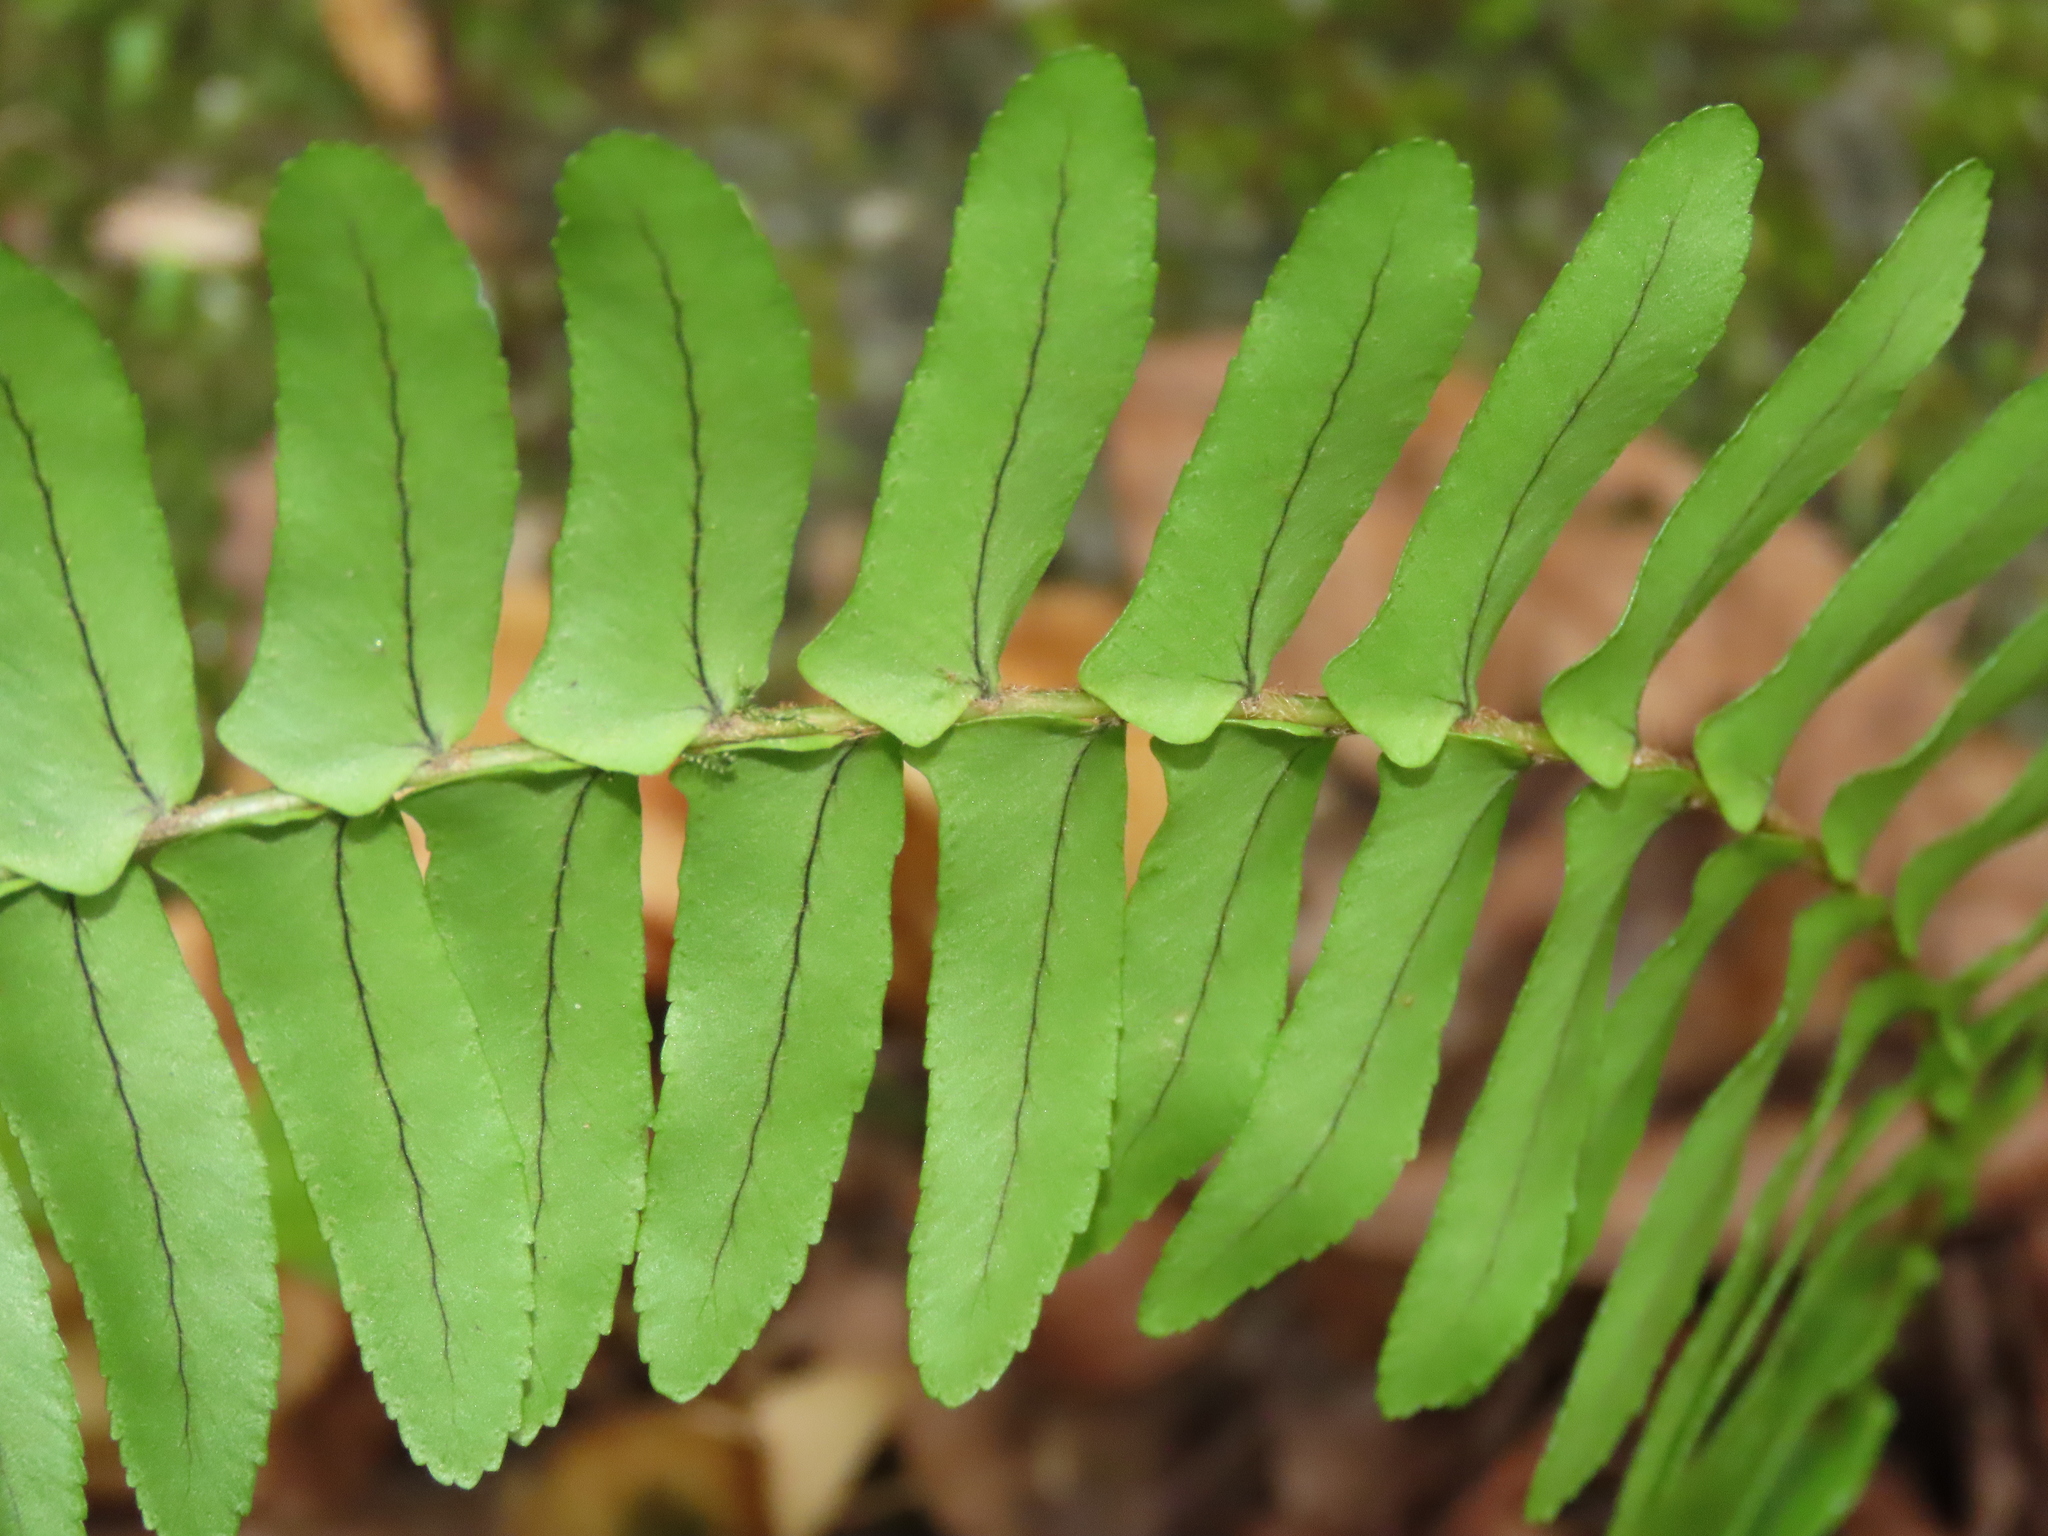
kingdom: Plantae
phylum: Tracheophyta
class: Polypodiopsida
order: Polypodiales
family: Nephrolepidaceae
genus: Nephrolepis
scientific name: Nephrolepis cordifolia
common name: Narrow swordfern
